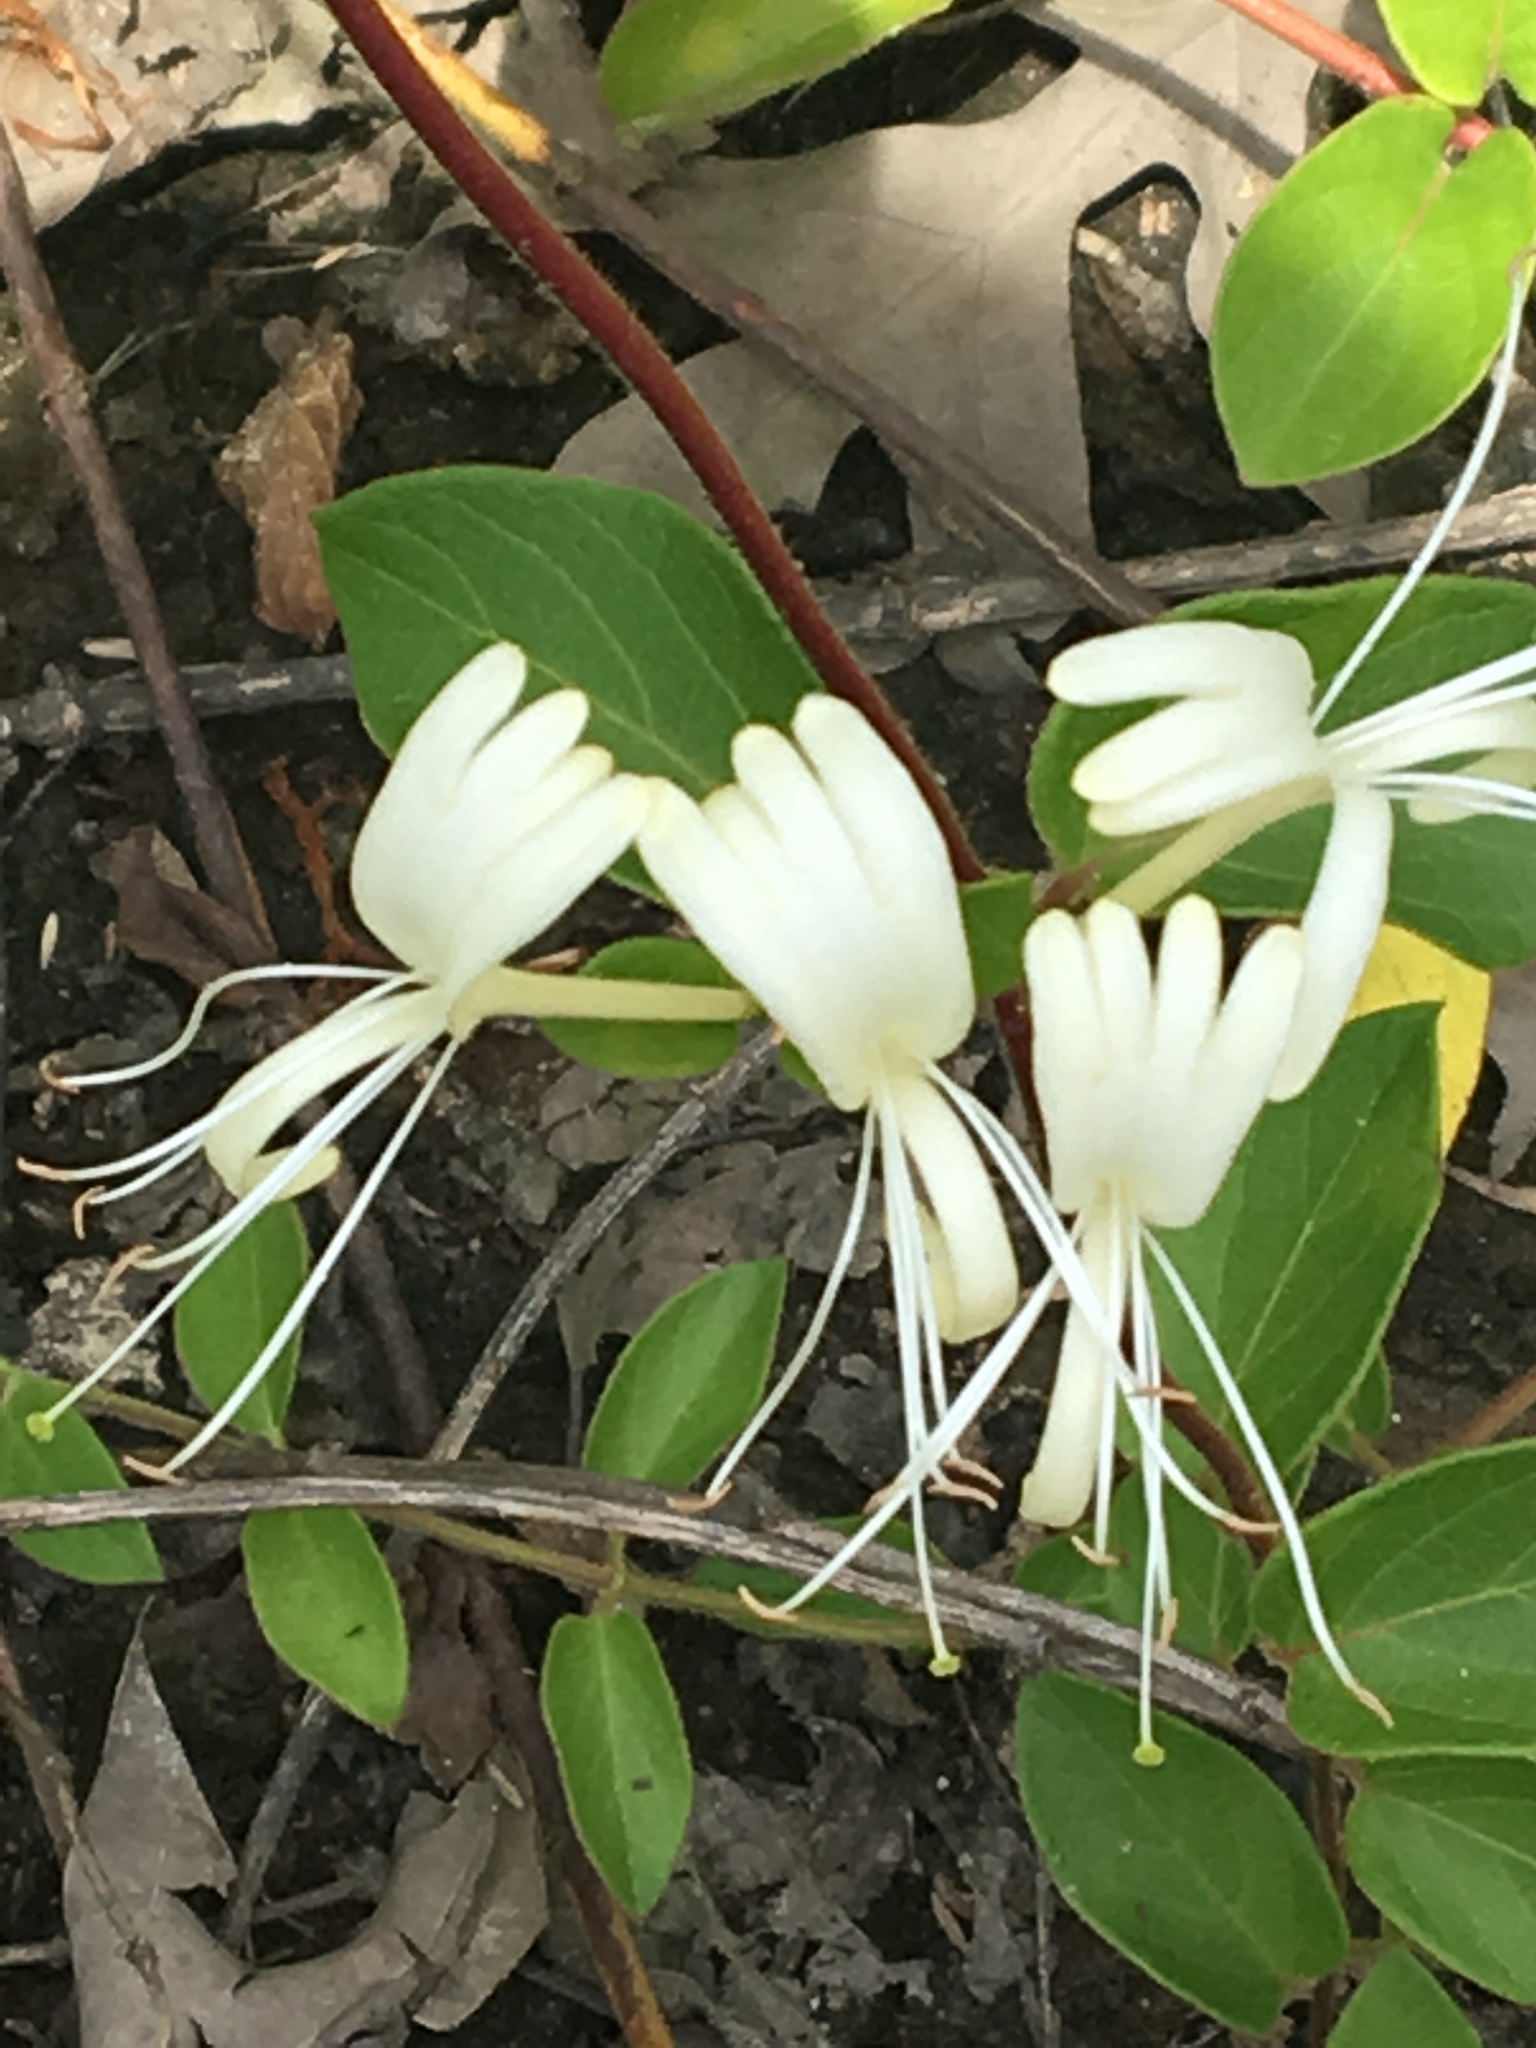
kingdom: Plantae
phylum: Tracheophyta
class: Magnoliopsida
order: Dipsacales
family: Caprifoliaceae
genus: Lonicera
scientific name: Lonicera japonica
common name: Japanese honeysuckle
